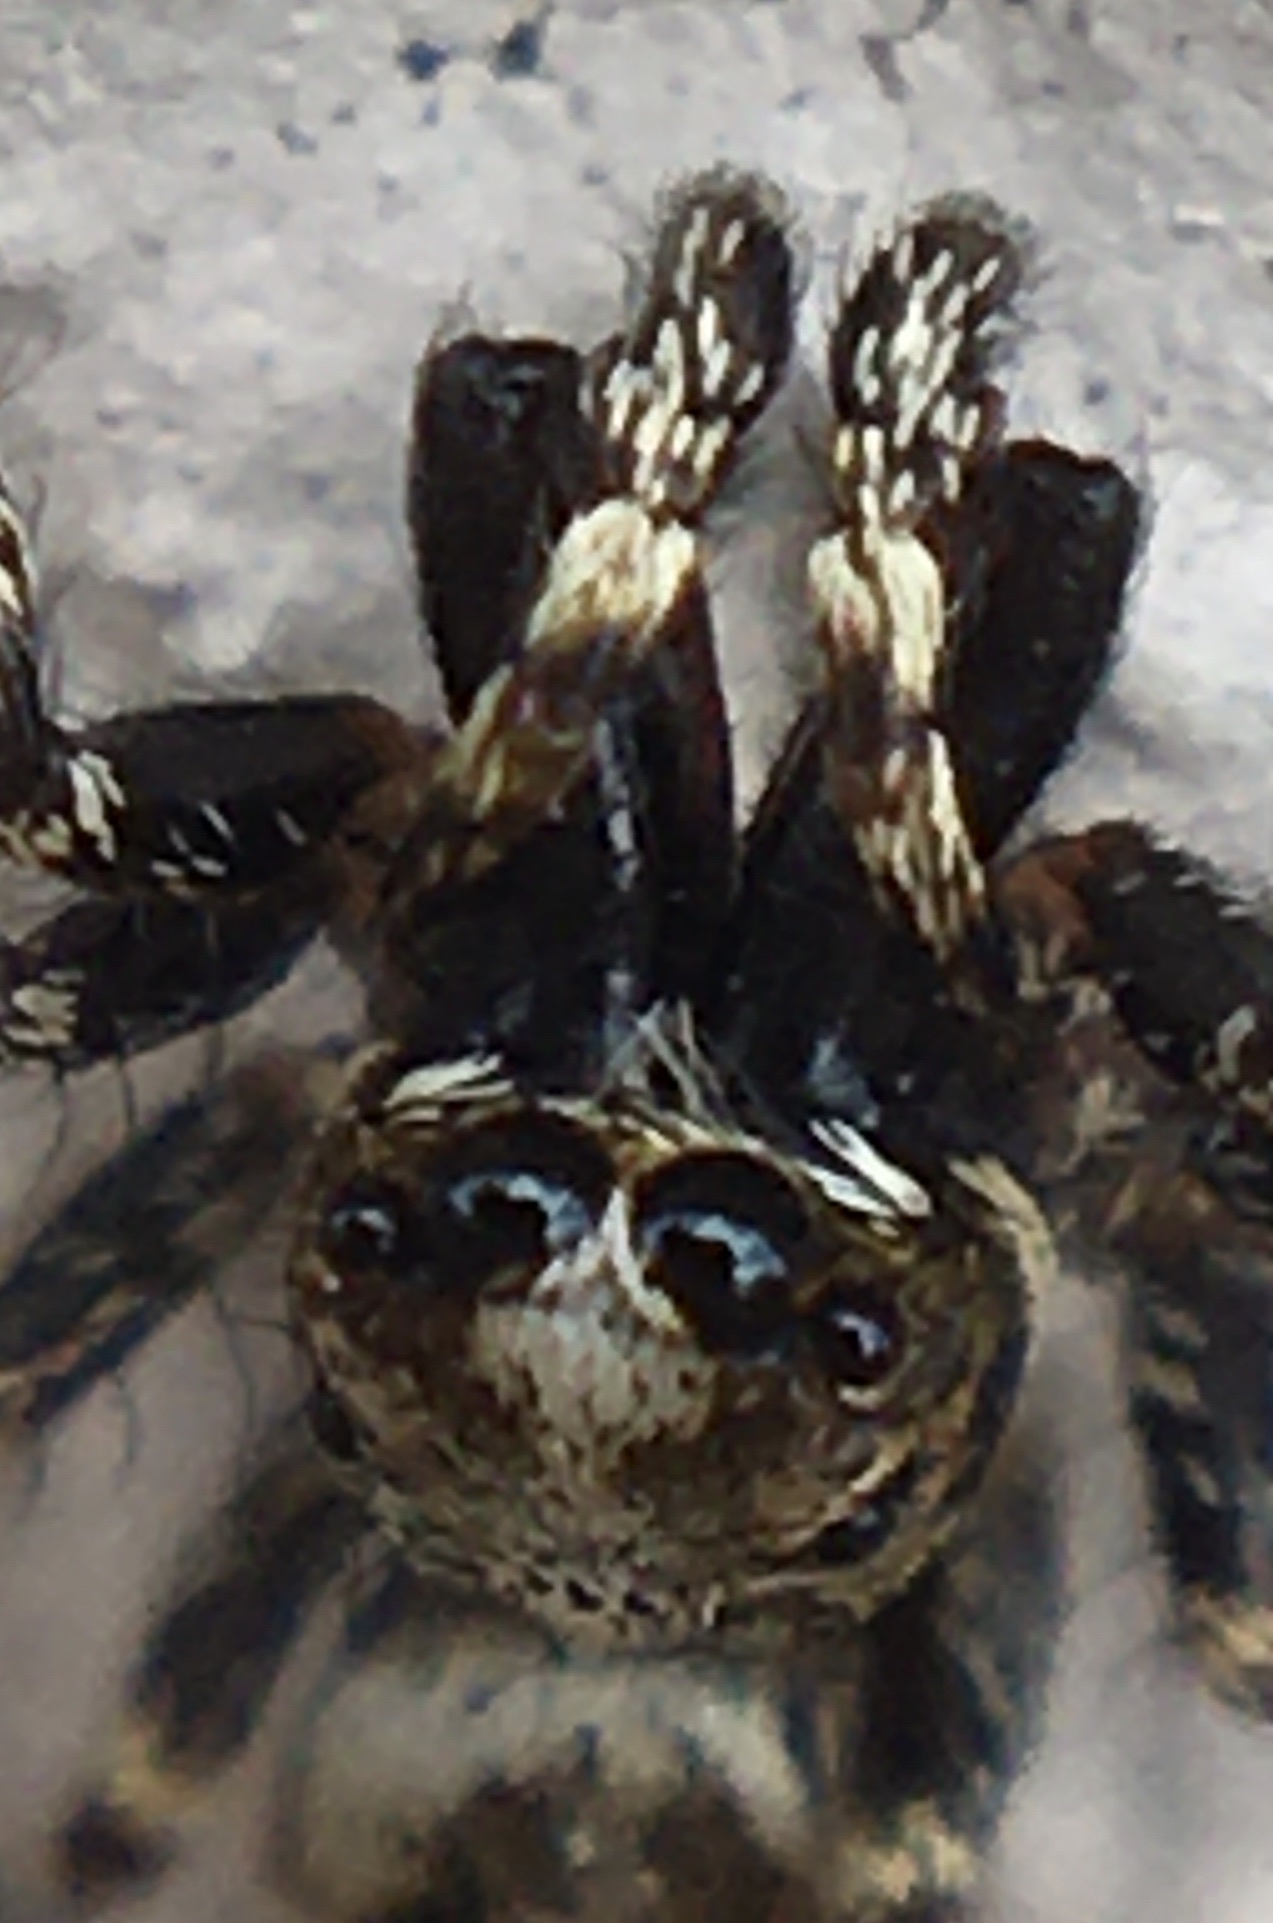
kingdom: Animalia
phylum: Arthropoda
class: Arachnida
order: Araneae
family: Salticidae
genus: Salticus
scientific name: Salticus mutabilis
